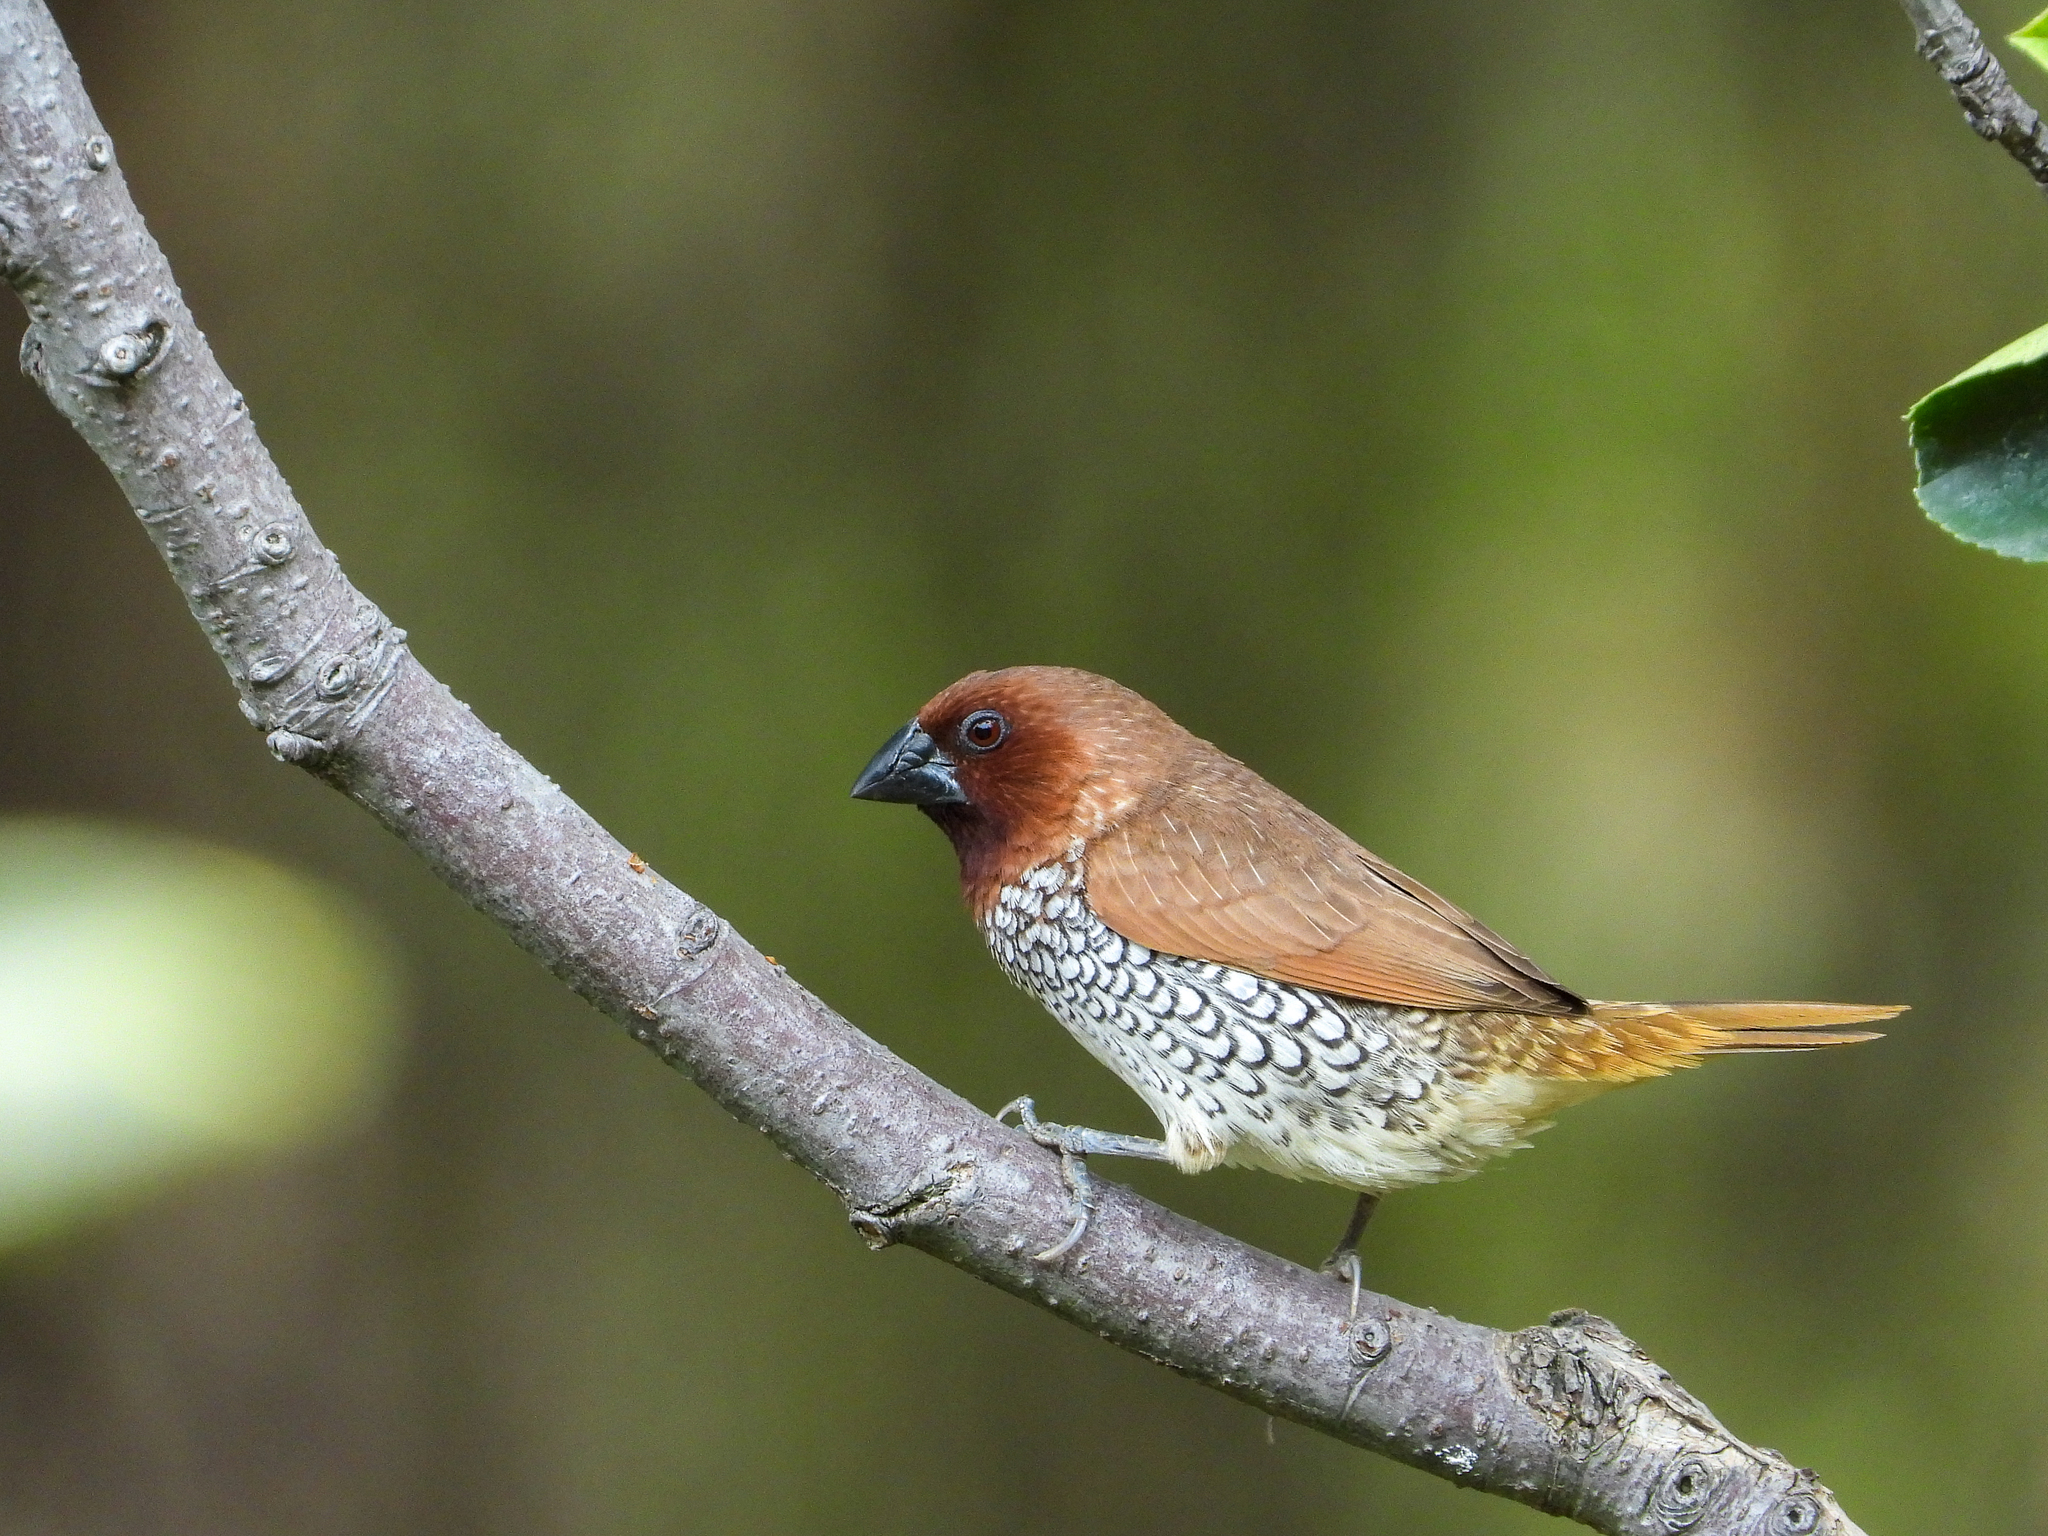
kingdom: Animalia
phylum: Chordata
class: Aves
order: Passeriformes
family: Estrildidae
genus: Lonchura
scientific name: Lonchura punctulata
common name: Scaly-breasted munia
